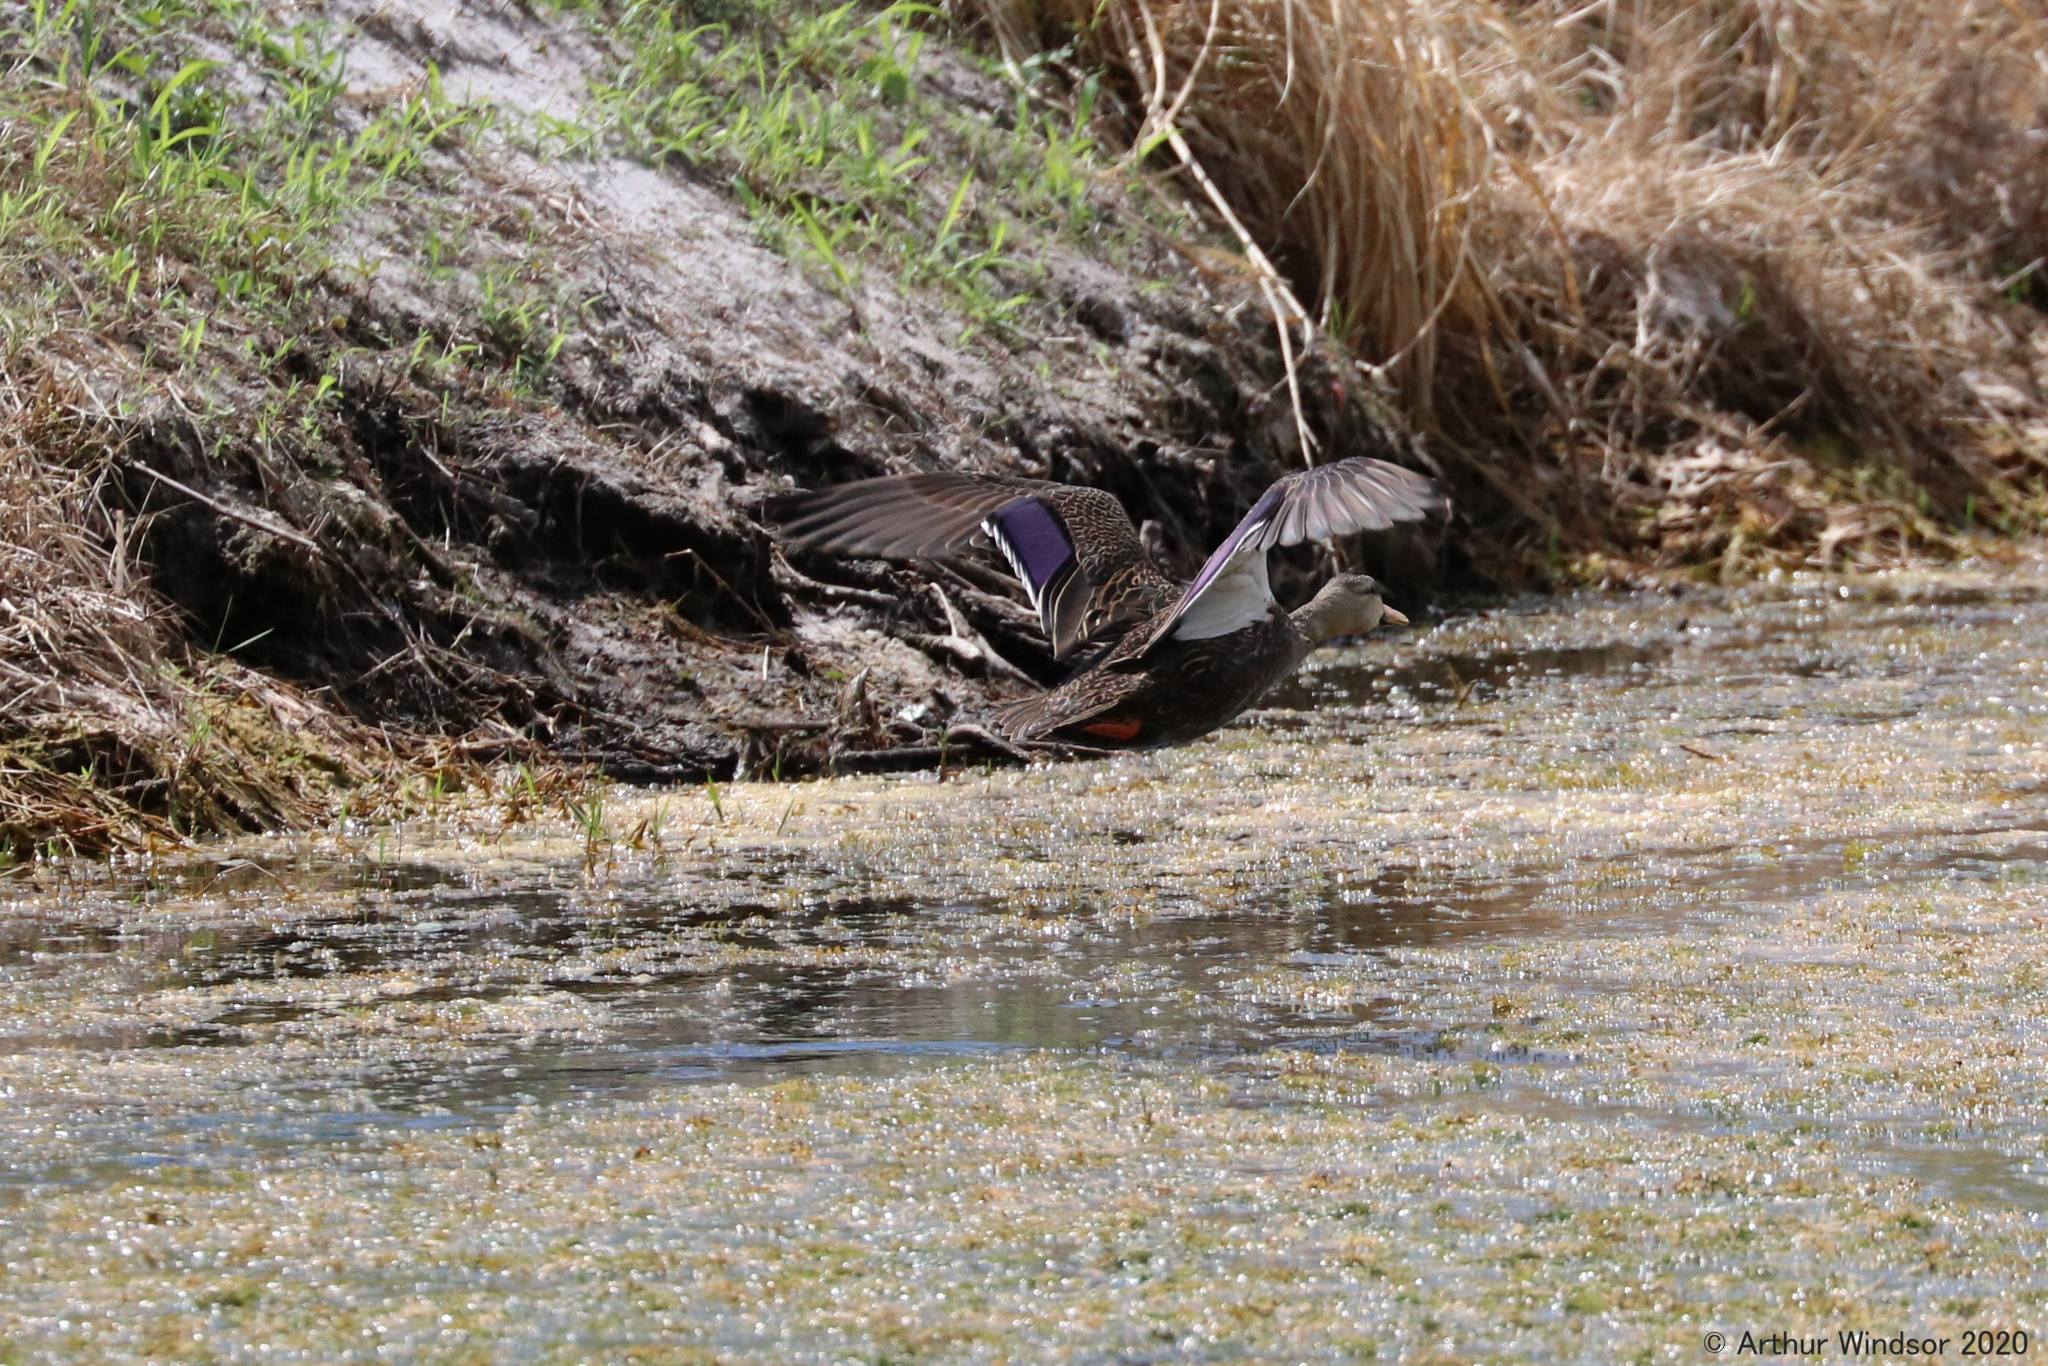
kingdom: Animalia
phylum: Chordata
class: Aves
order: Anseriformes
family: Anatidae
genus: Anas
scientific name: Anas fulvigula
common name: Mottled duck
